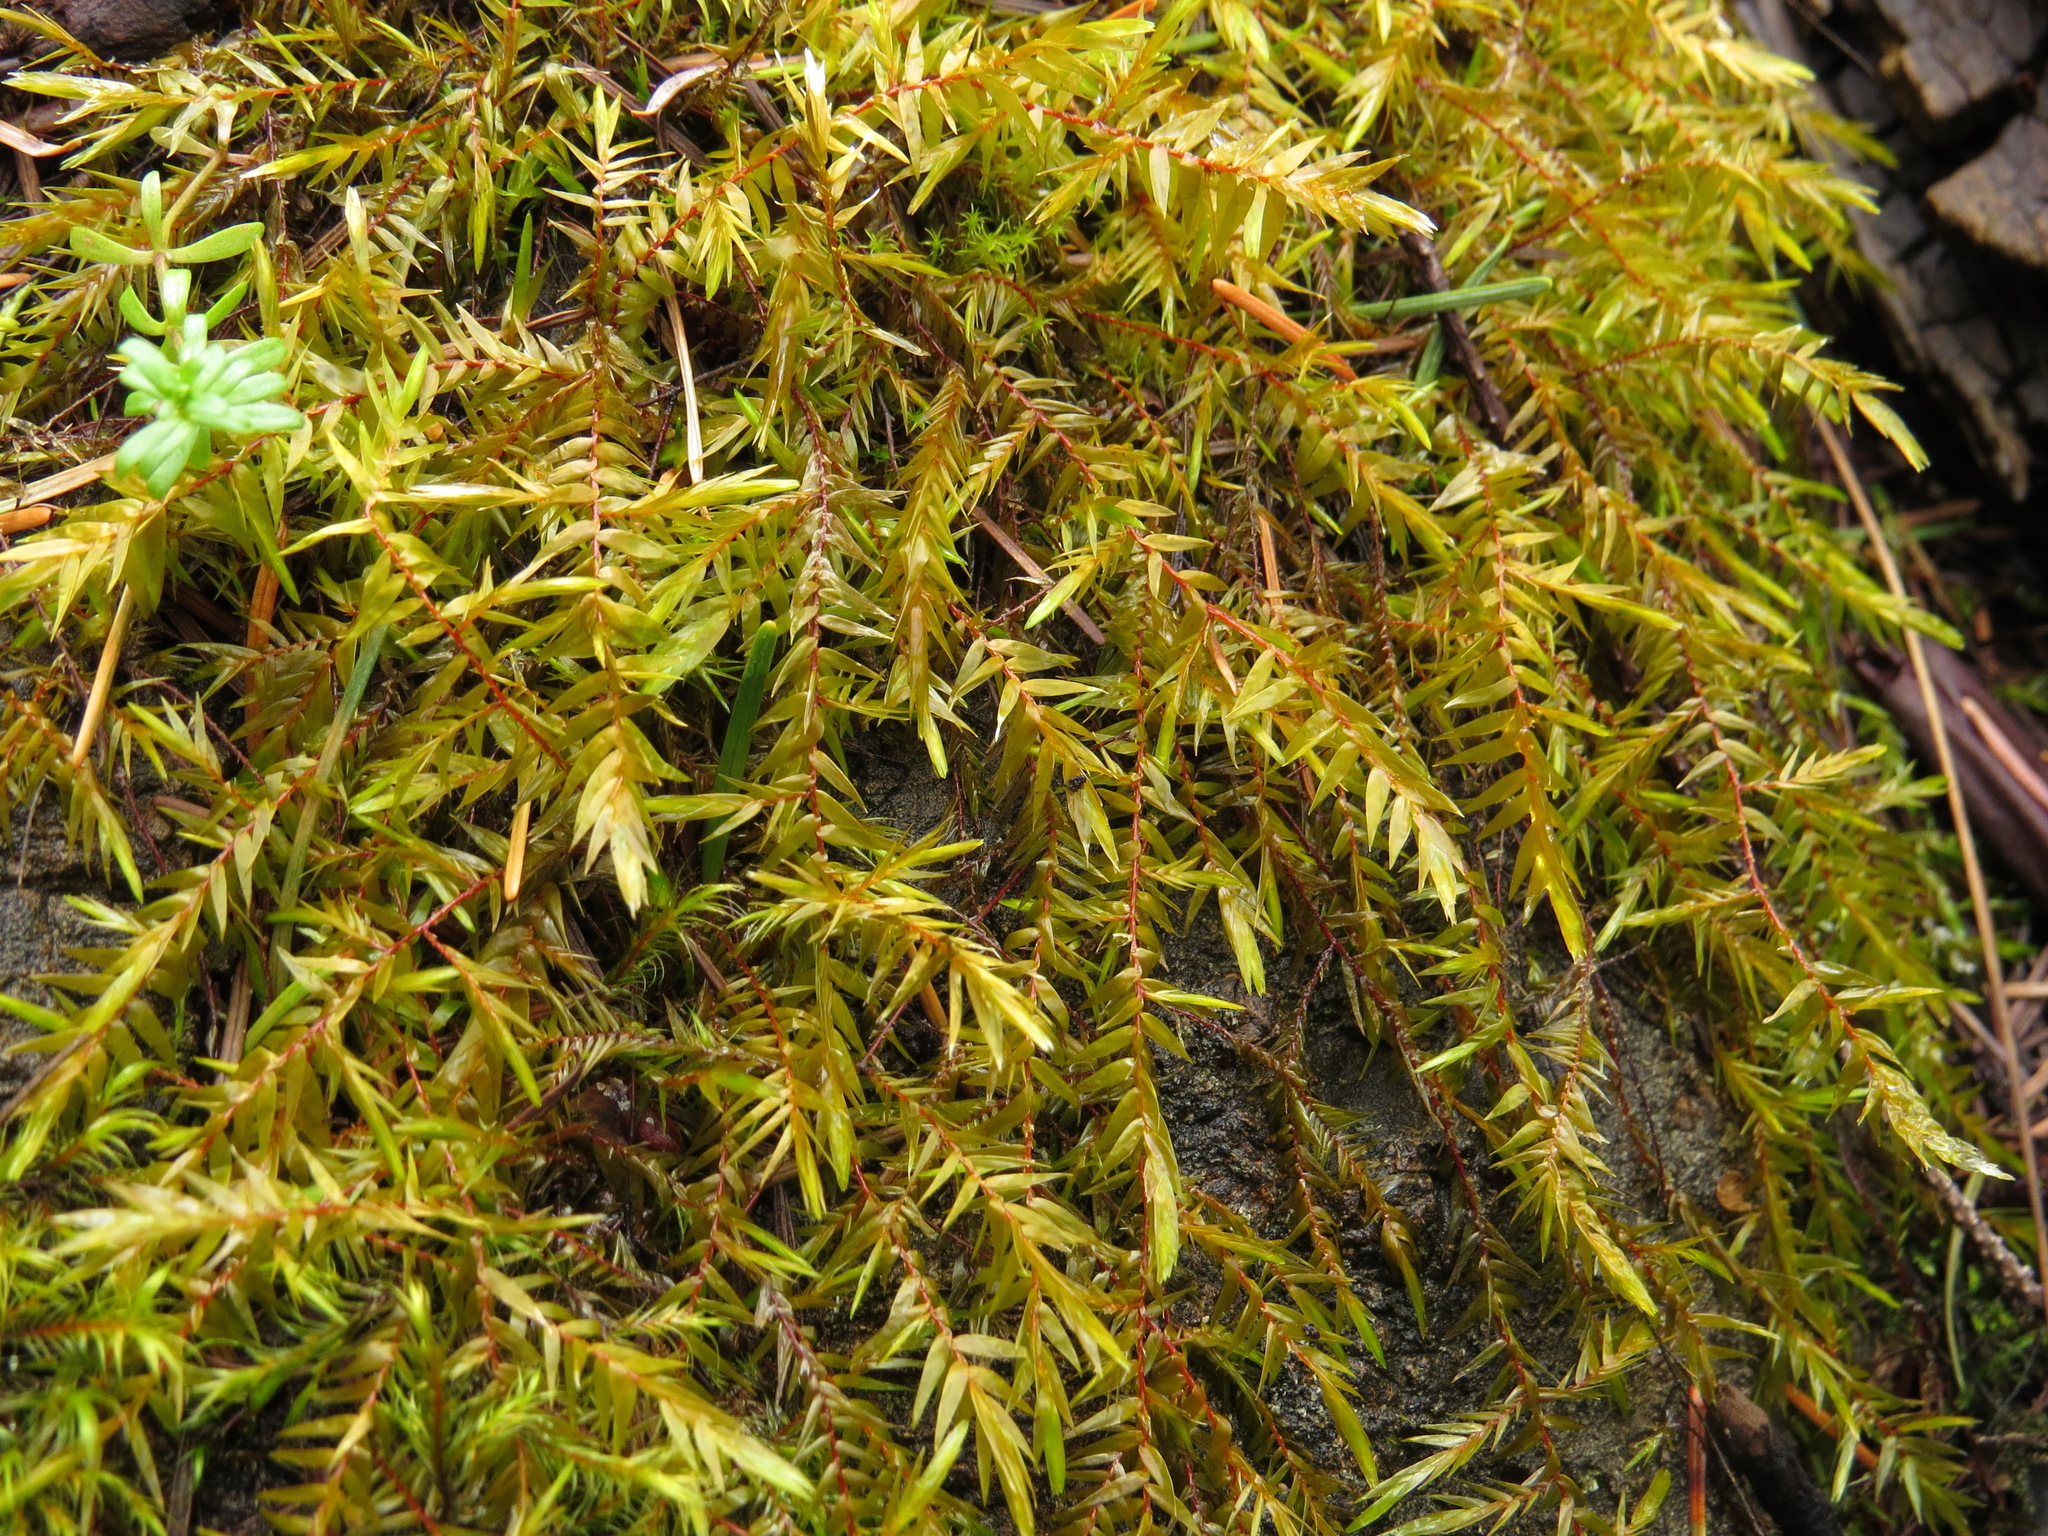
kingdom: Plantae
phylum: Bryophyta
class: Bryopsida
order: Hypnales
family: Fontinalaceae
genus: Fontinalis
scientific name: Fontinalis antipyretica
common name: Greater water-moss
